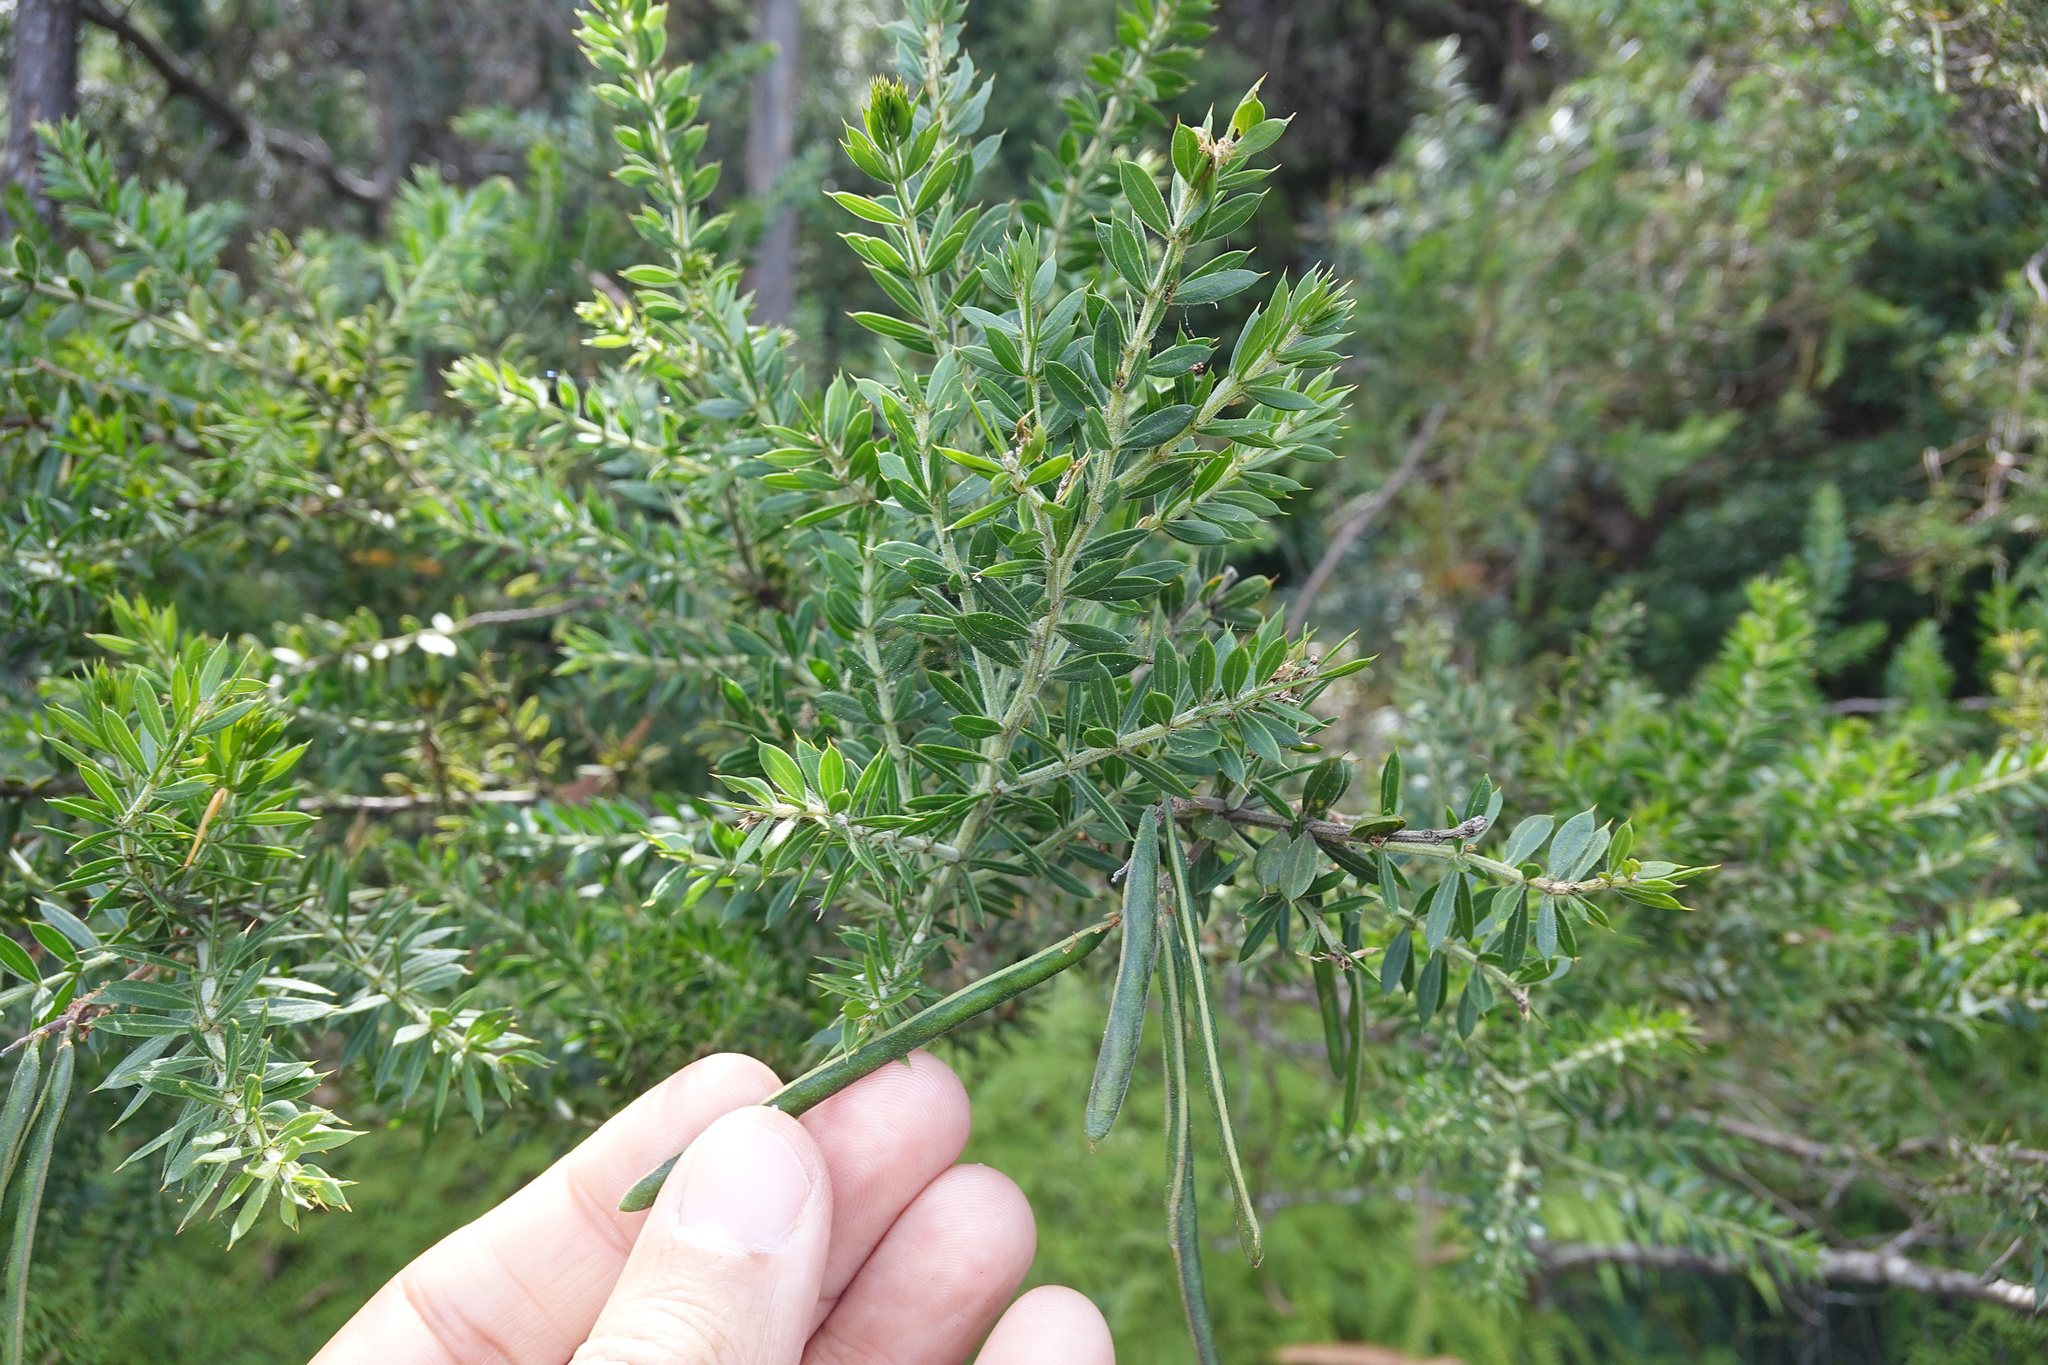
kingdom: Plantae
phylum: Tracheophyta
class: Magnoliopsida
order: Fabales
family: Fabaceae
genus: Acacia
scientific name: Acacia verticillata
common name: Prickly moses
